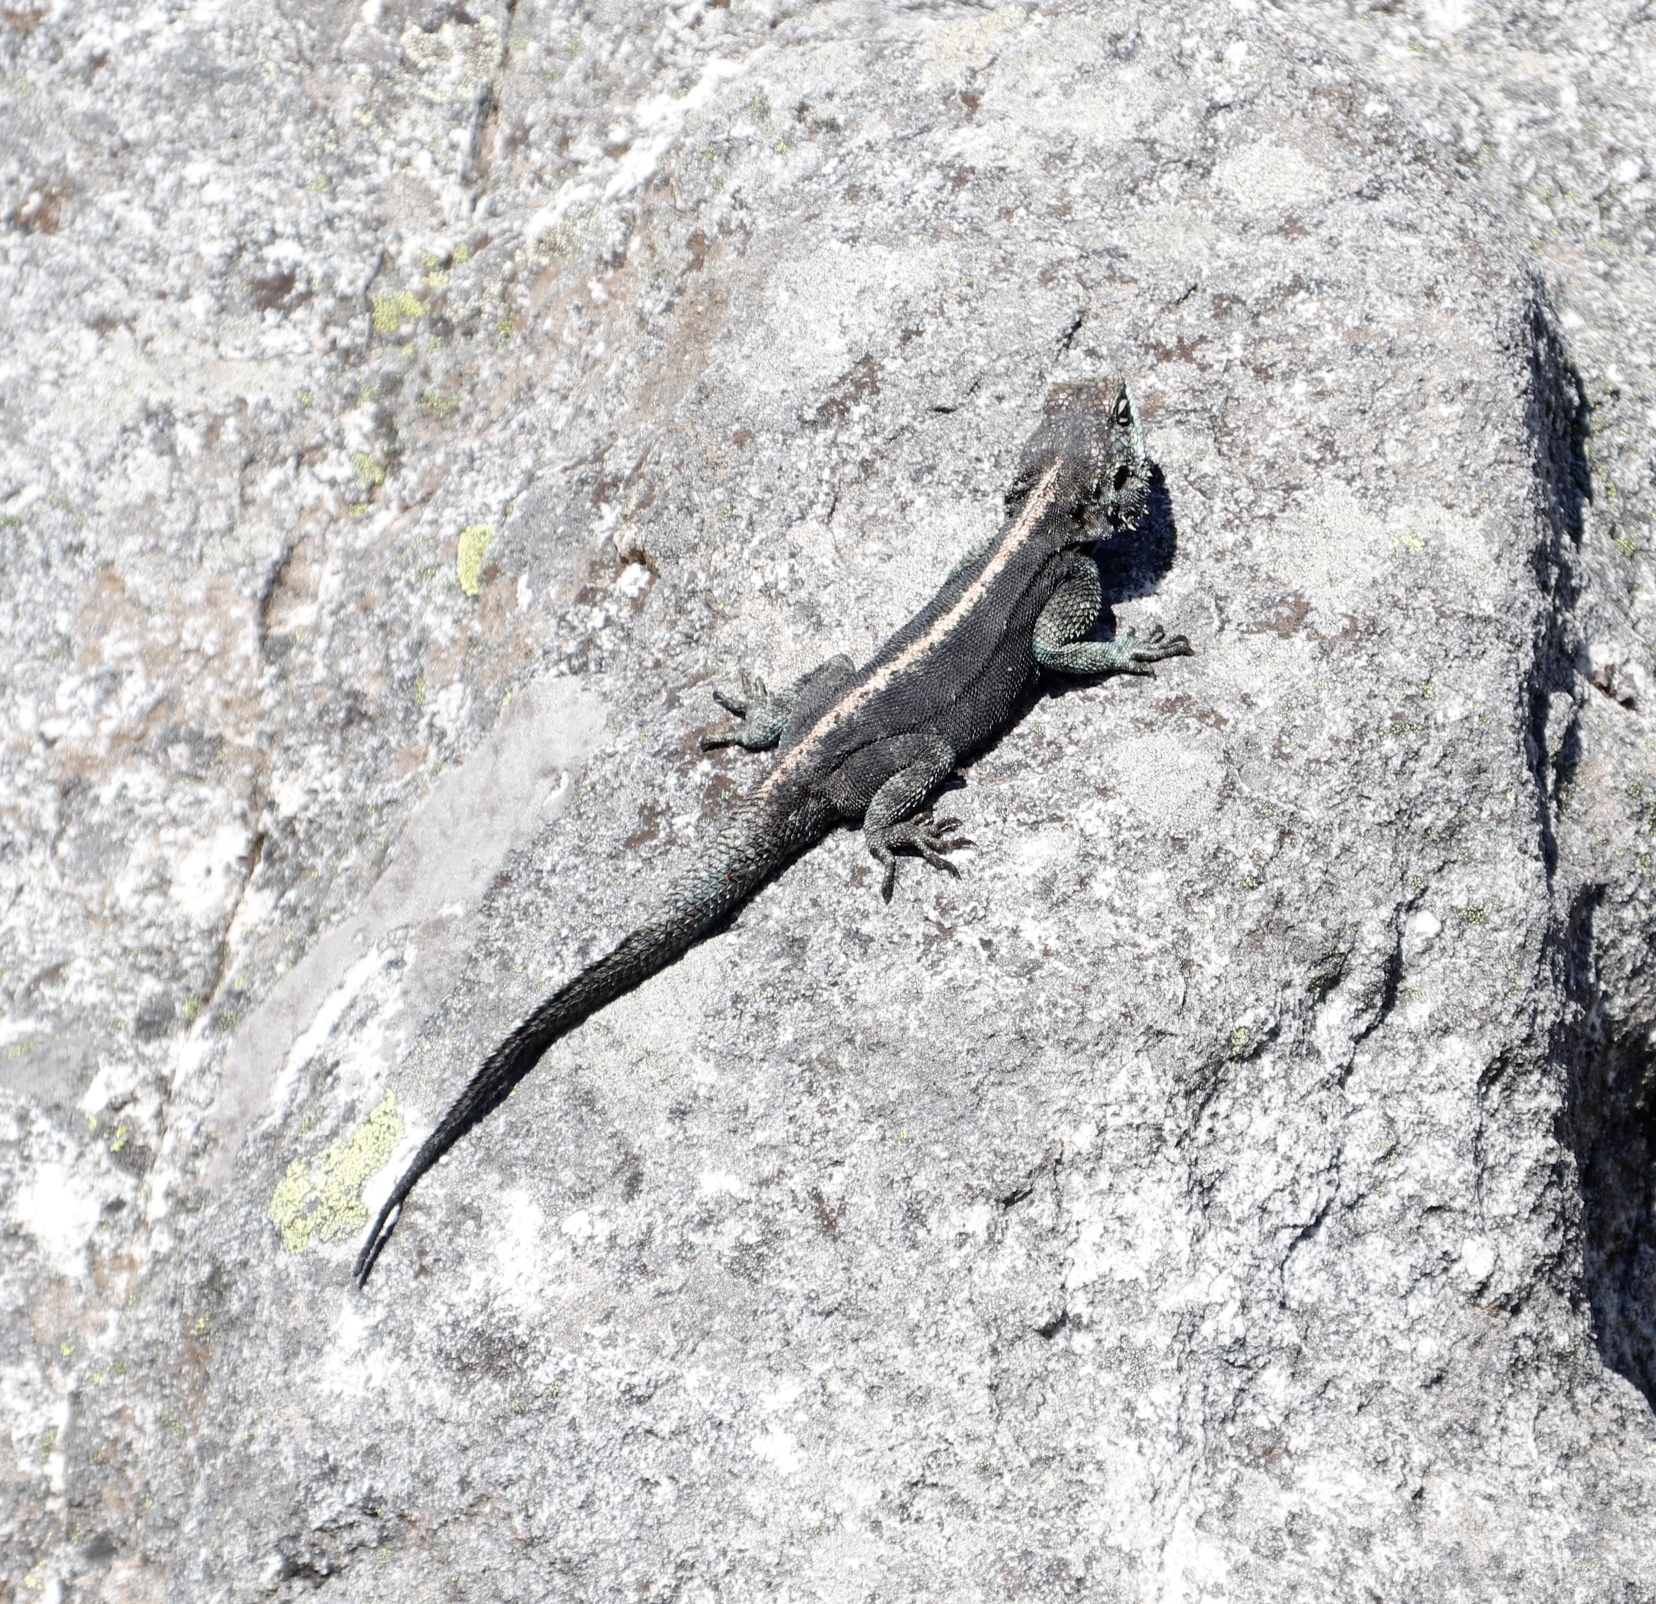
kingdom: Animalia
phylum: Chordata
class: Squamata
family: Agamidae
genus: Agama
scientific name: Agama atra
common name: Southern african rock agama
